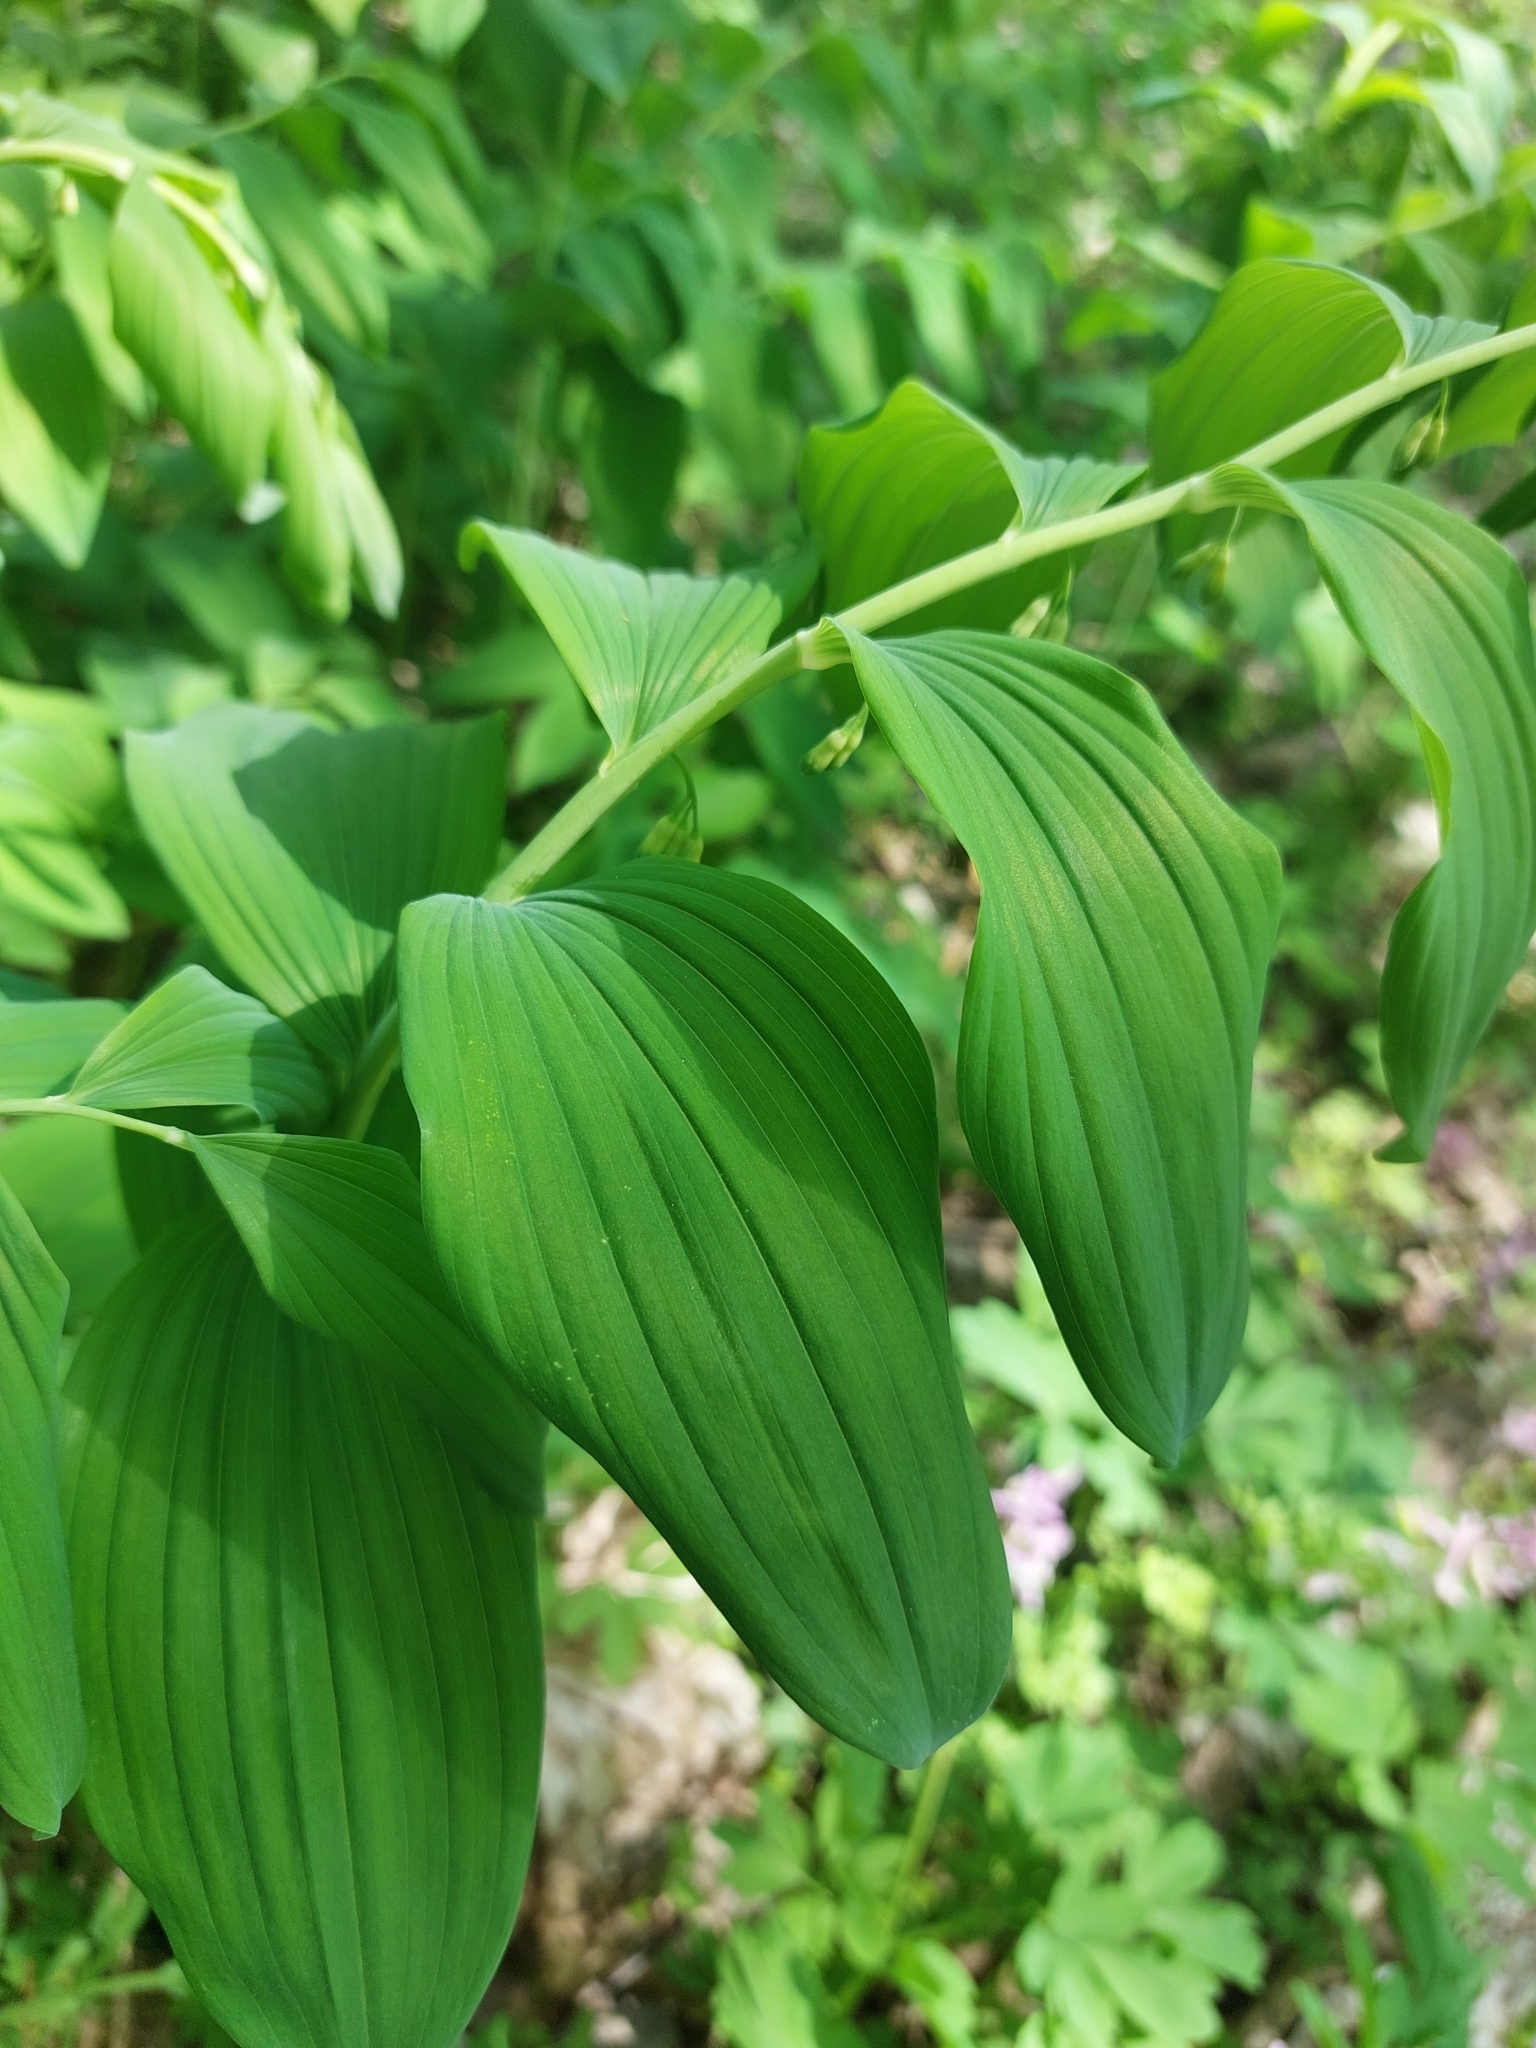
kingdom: Plantae
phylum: Tracheophyta
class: Liliopsida
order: Asparagales
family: Asparagaceae
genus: Polygonatum
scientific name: Polygonatum multiflorum
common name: Solomon's-seal
